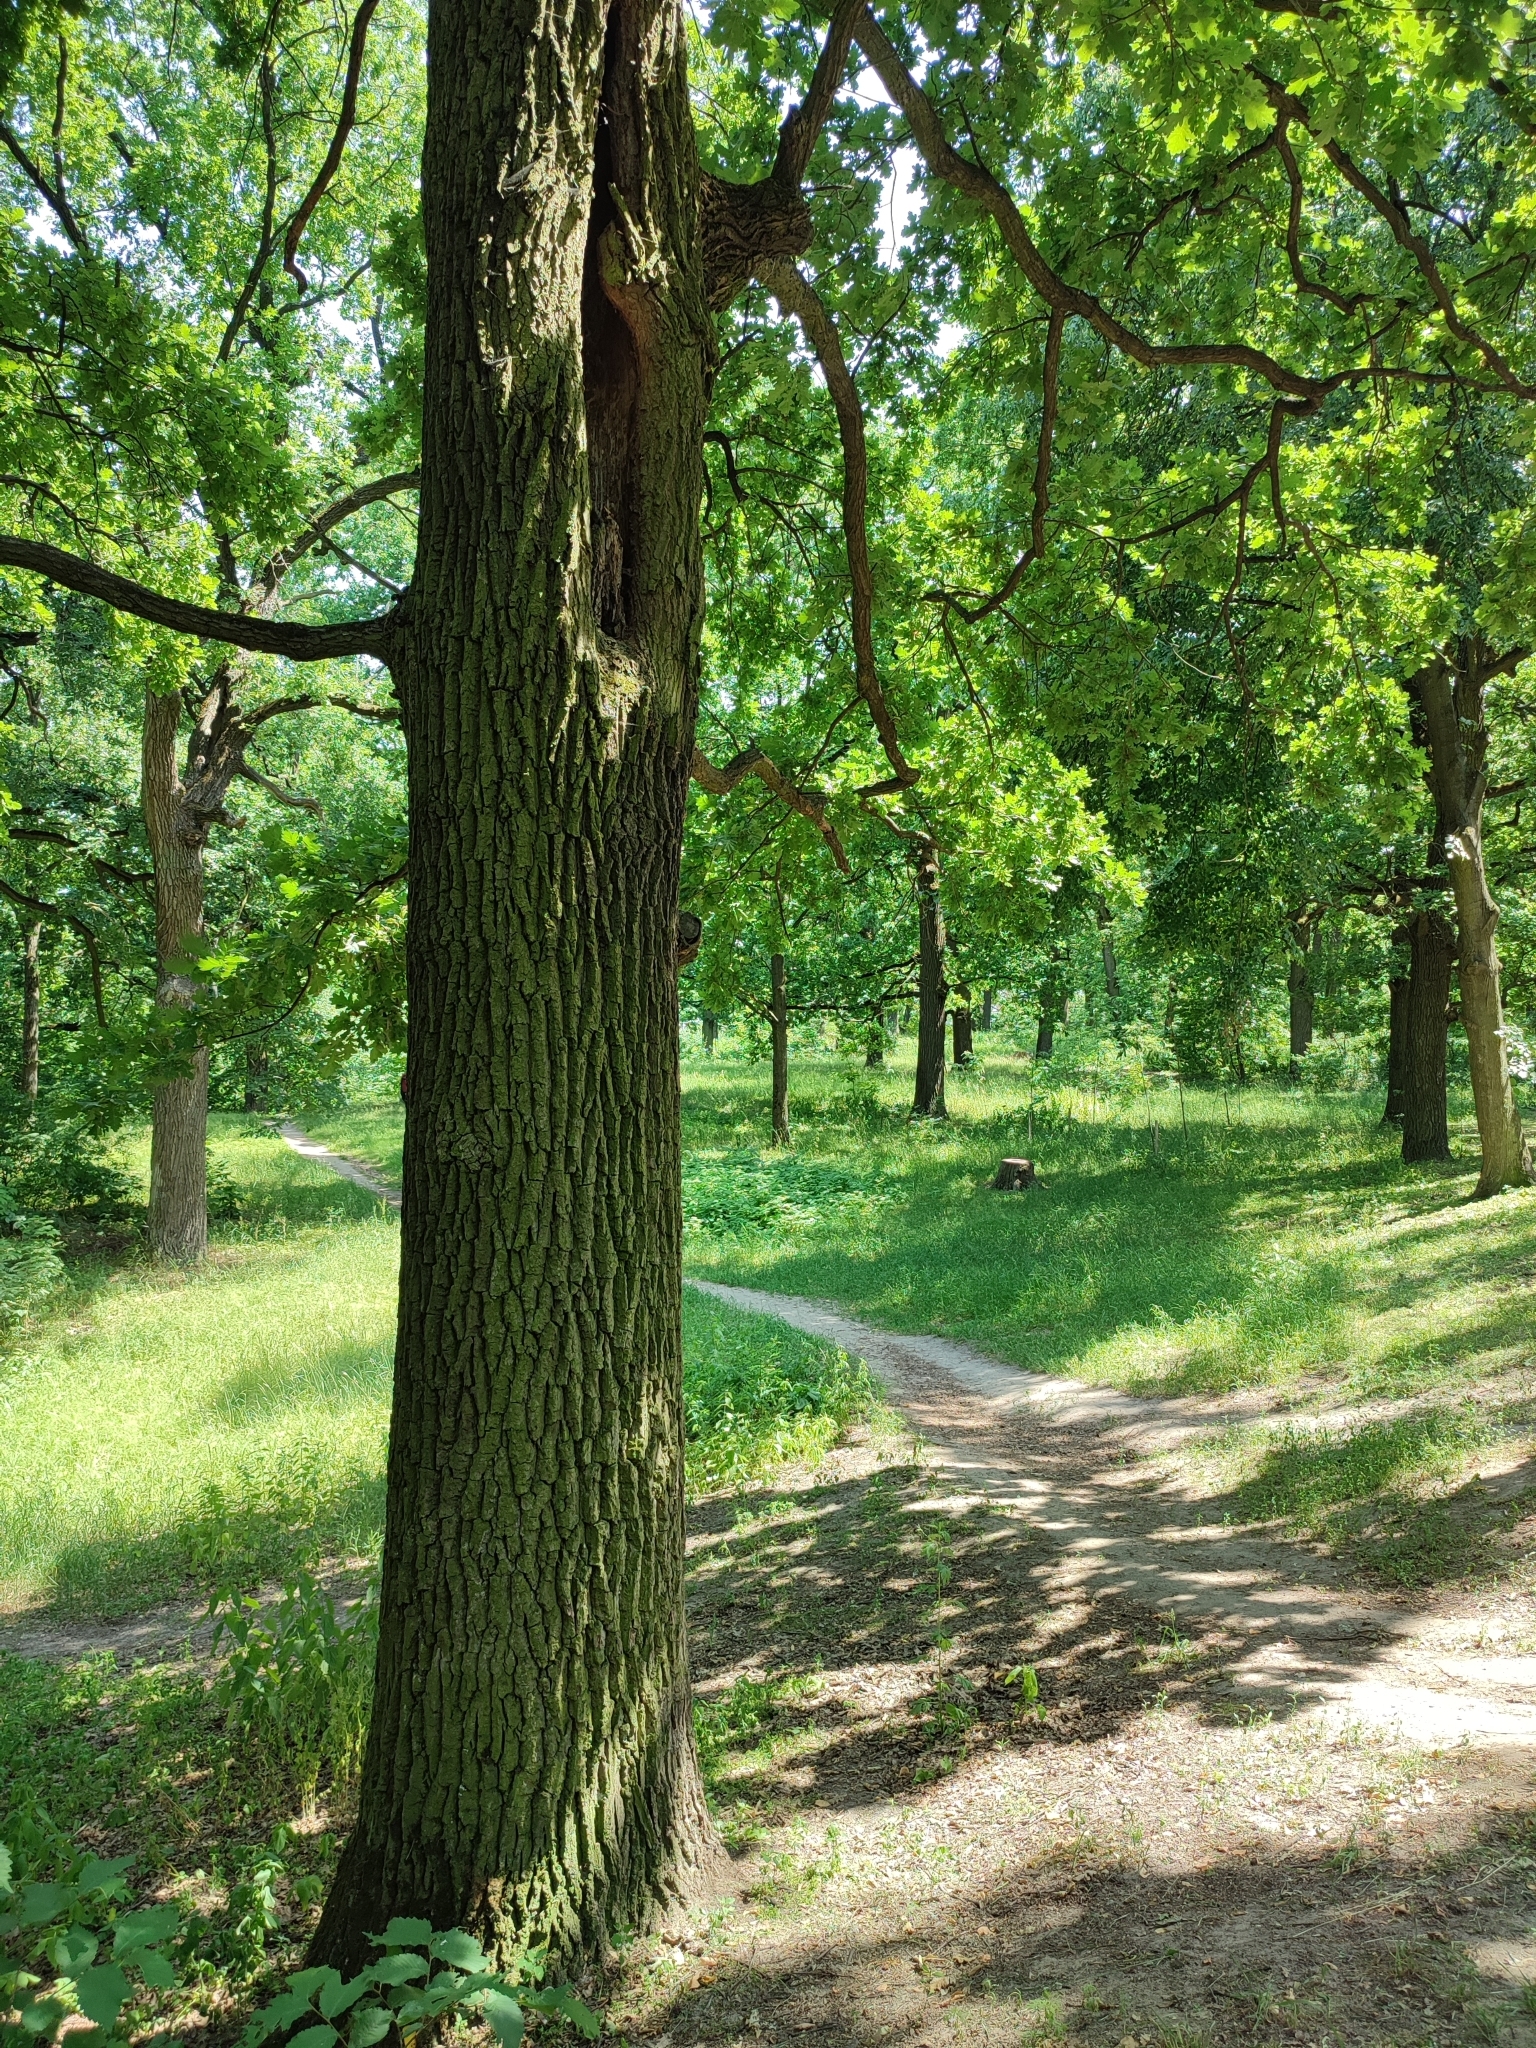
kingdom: Plantae
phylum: Tracheophyta
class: Magnoliopsida
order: Fagales
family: Fagaceae
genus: Quercus
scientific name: Quercus robur
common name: Pedunculate oak
